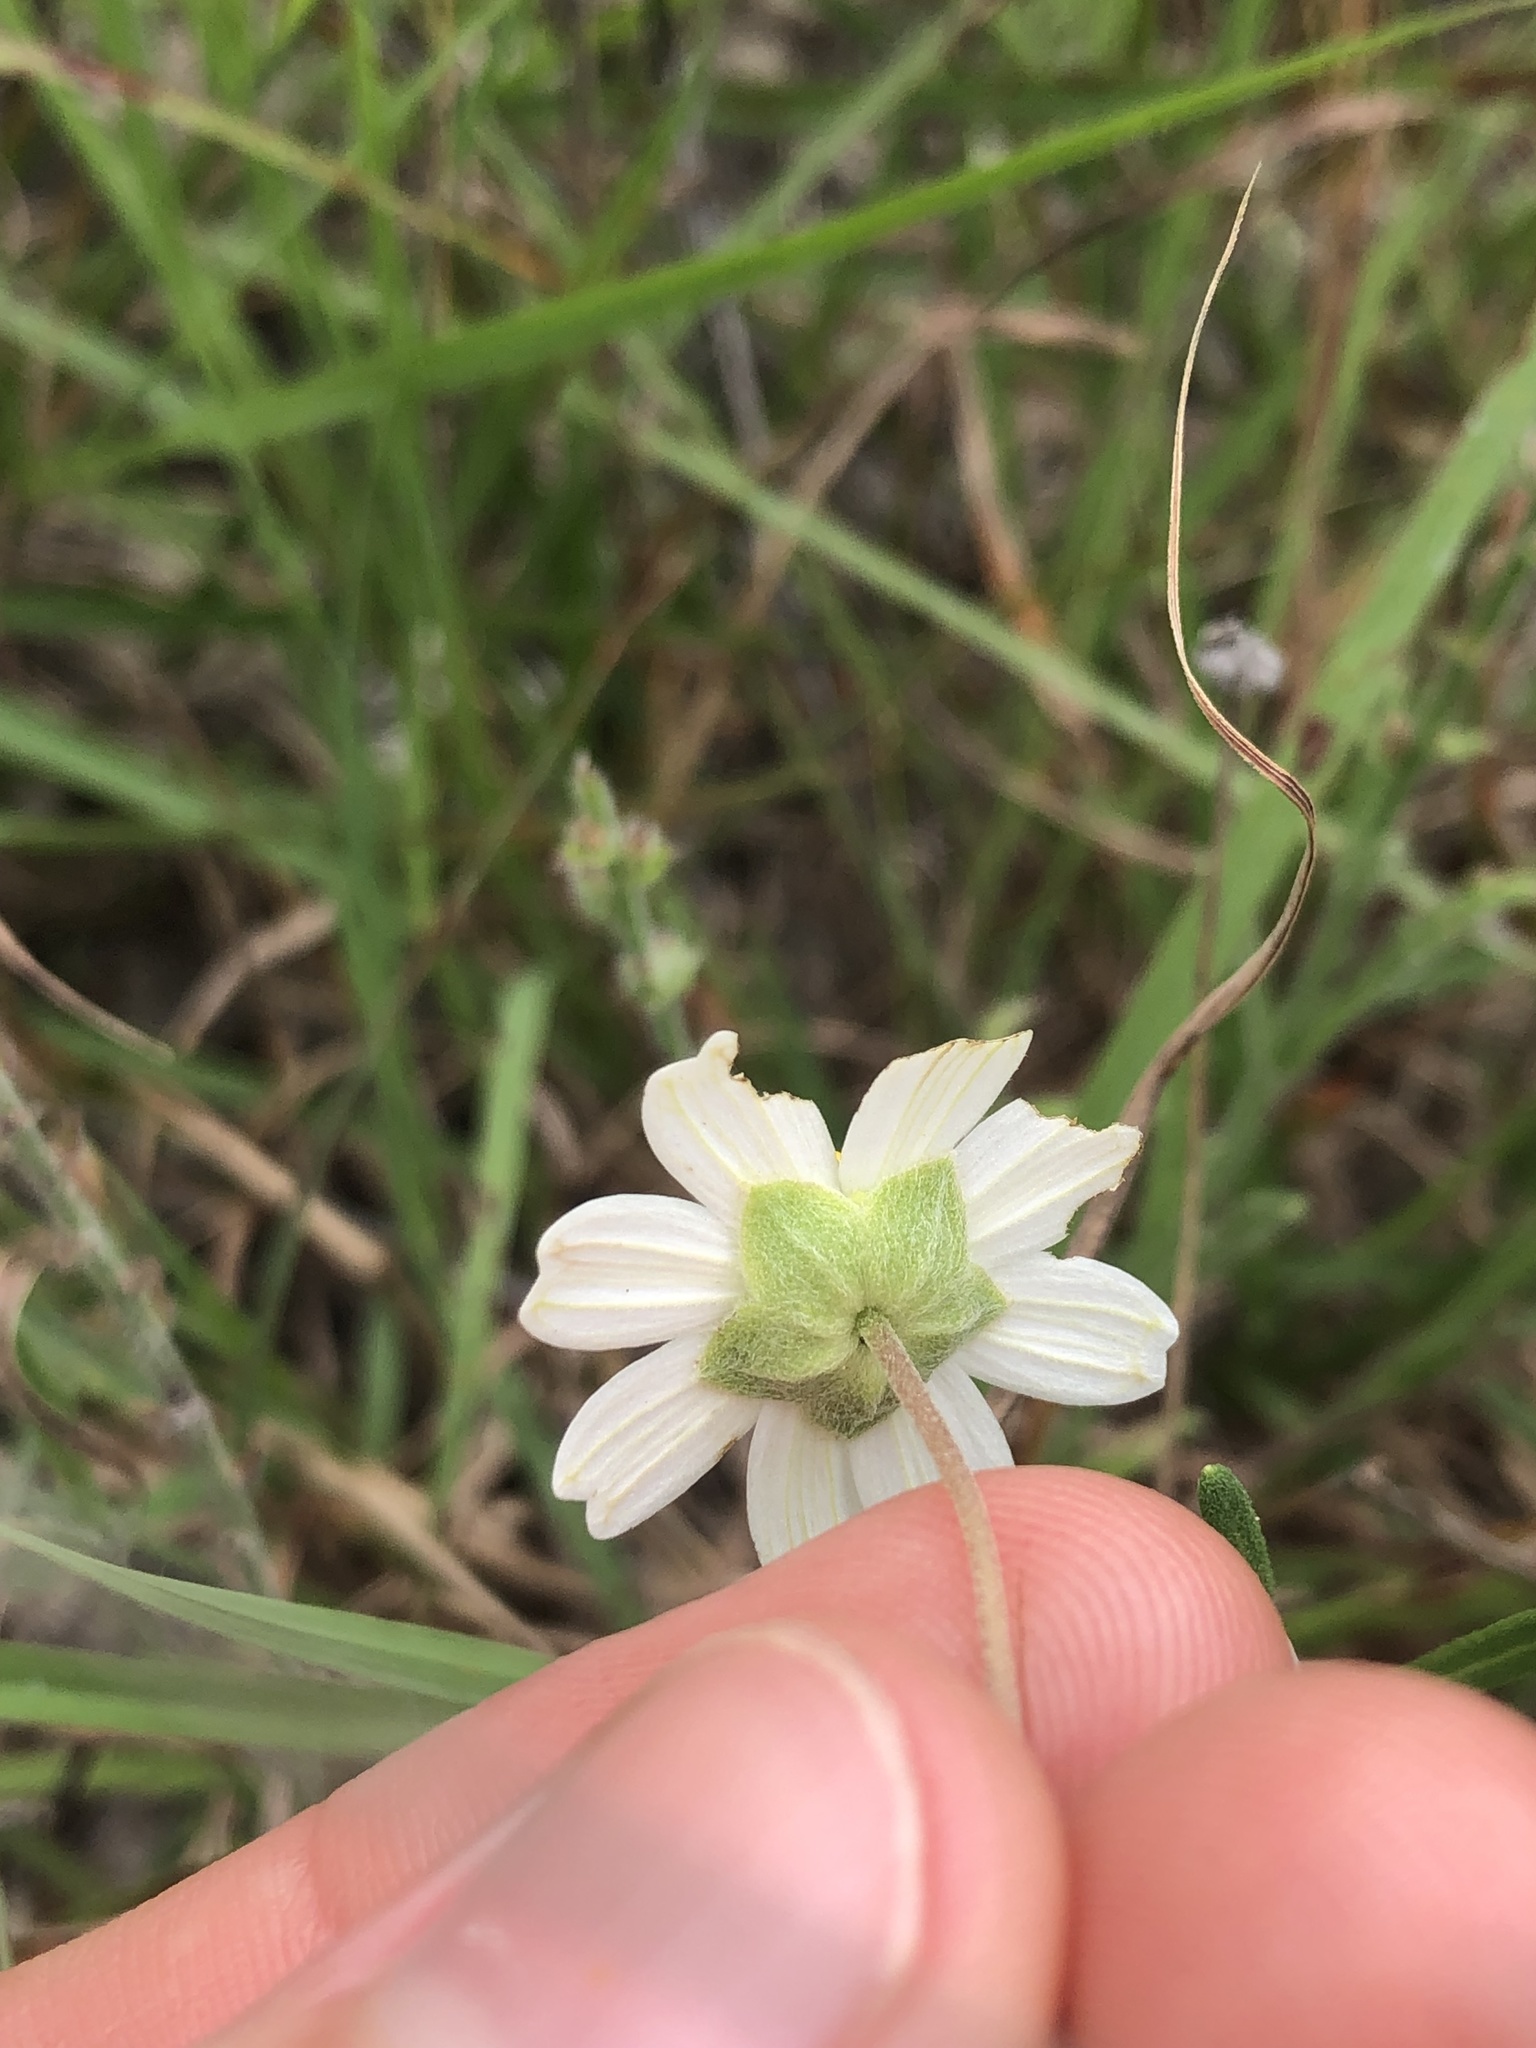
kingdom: Plantae
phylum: Tracheophyta
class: Magnoliopsida
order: Asterales
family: Asteraceae
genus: Melampodium
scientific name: Melampodium leucanthum
